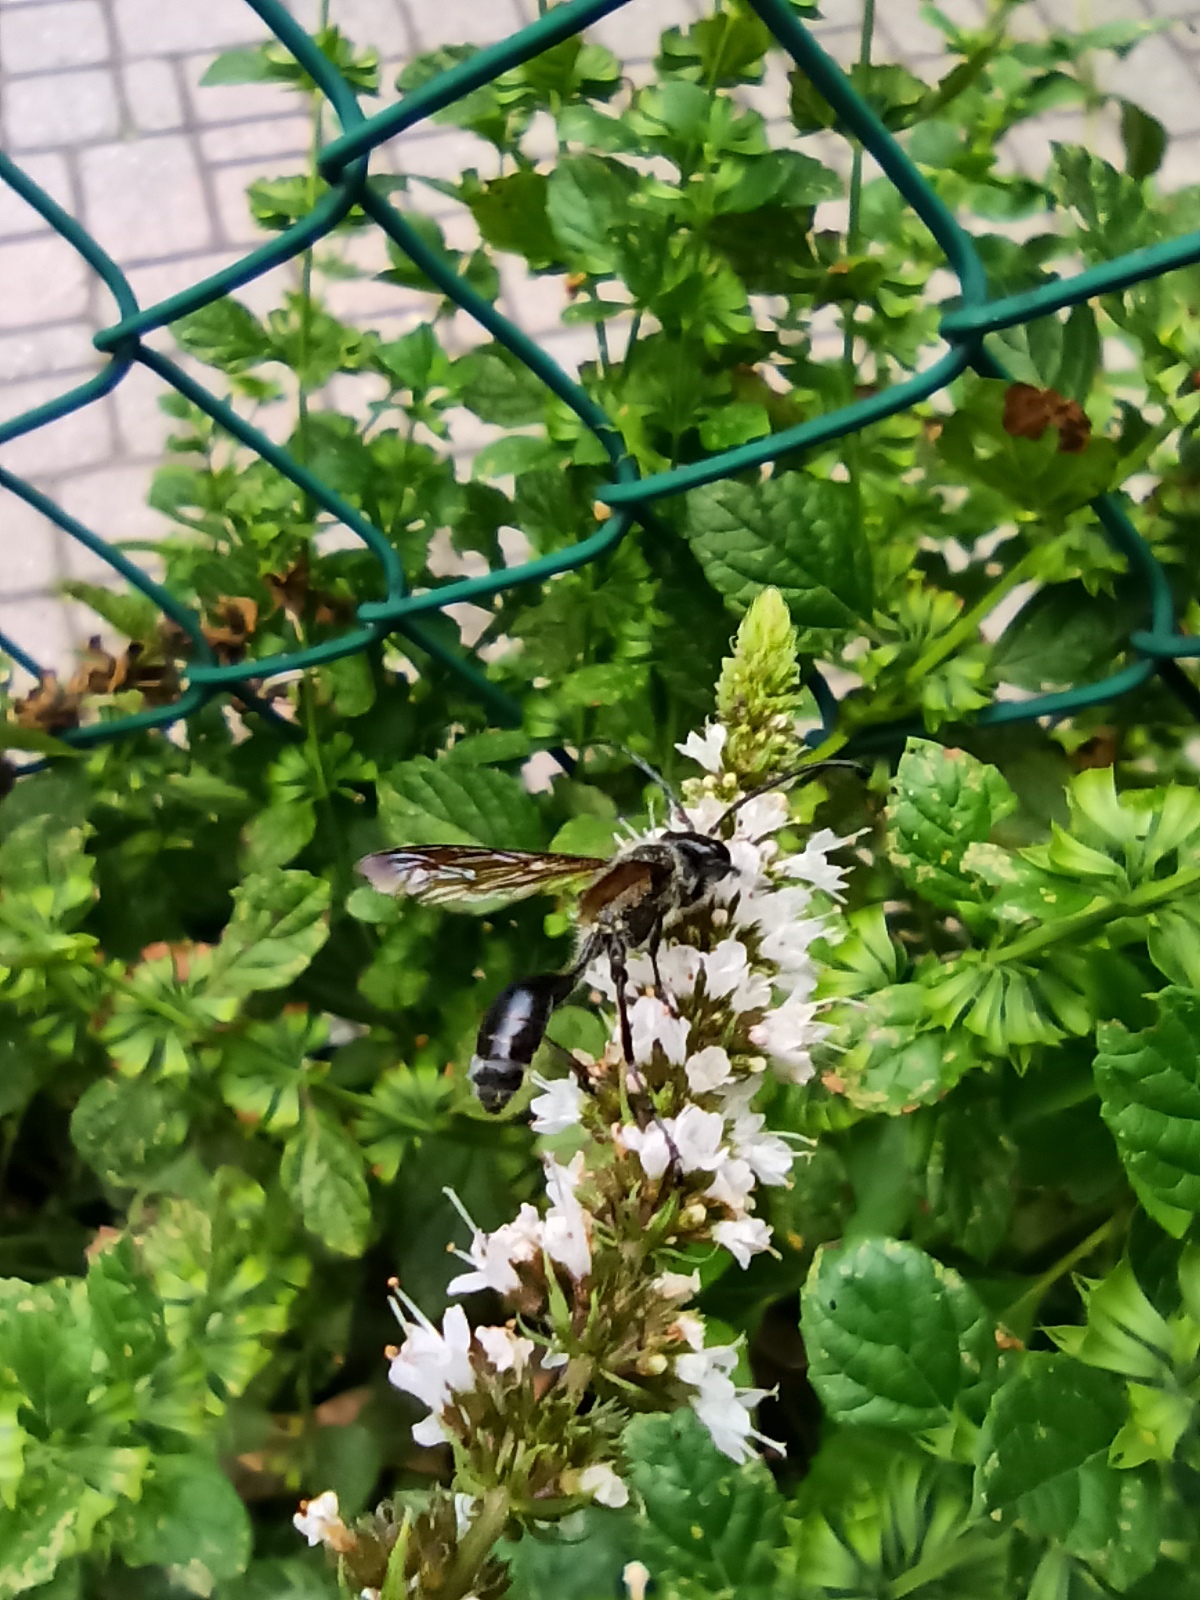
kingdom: Animalia
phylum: Arthropoda
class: Insecta
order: Hymenoptera
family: Sphecidae
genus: Isodontia
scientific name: Isodontia mexicana
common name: Mud dauber
